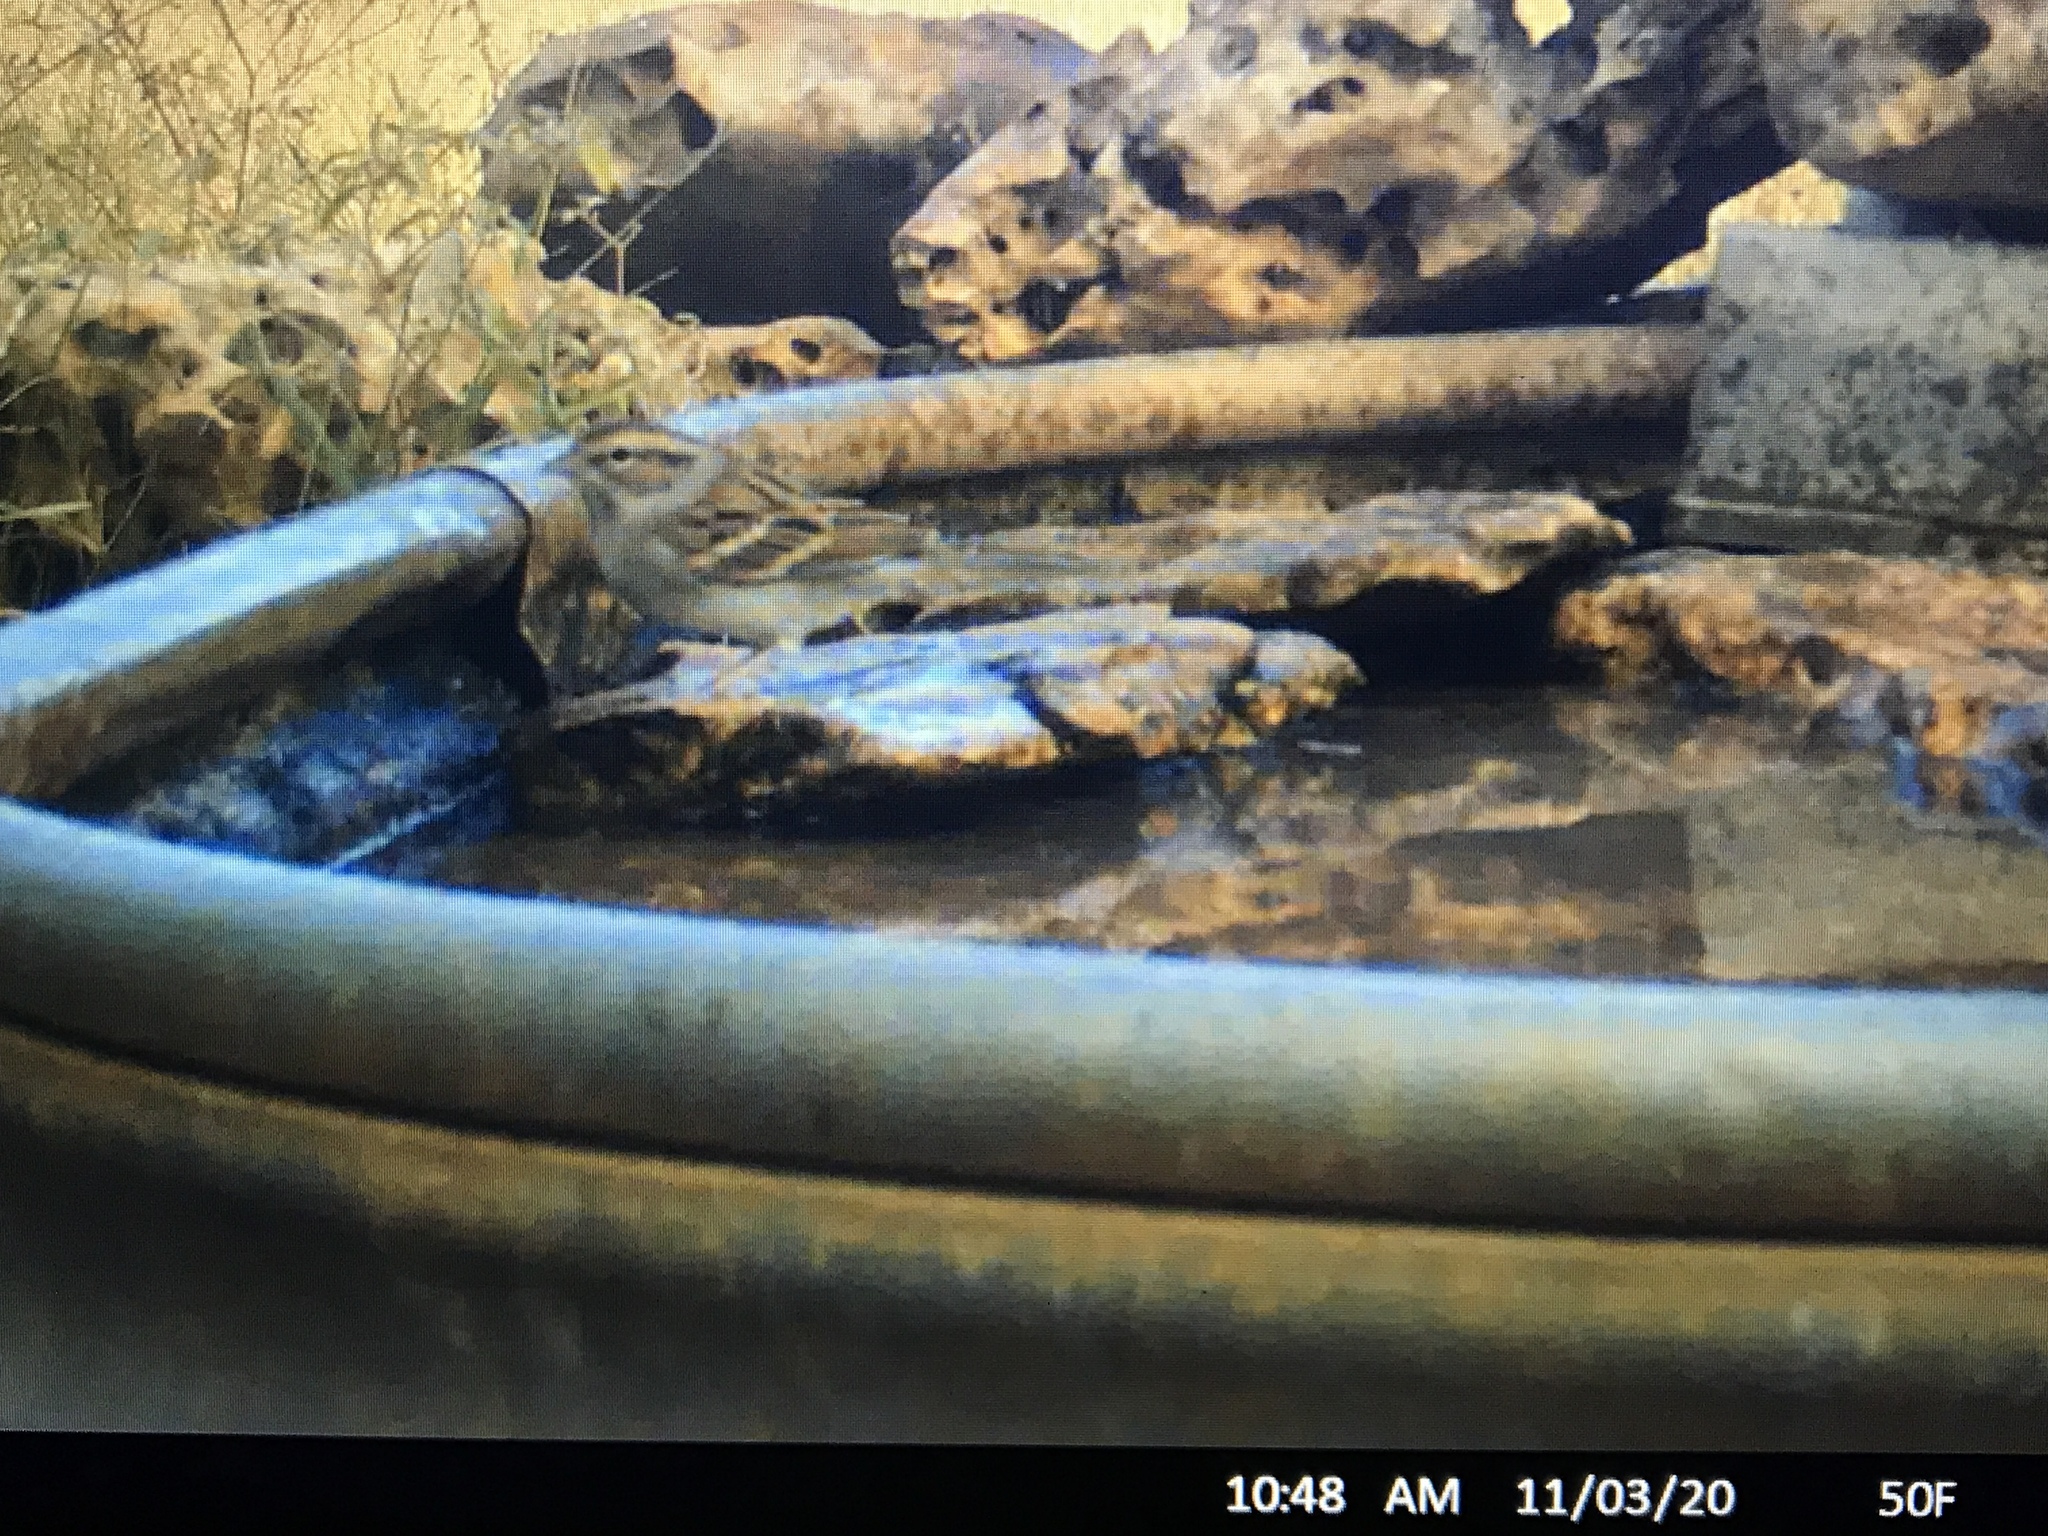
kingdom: Animalia
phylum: Chordata
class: Aves
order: Passeriformes
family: Passerellidae
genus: Spizella
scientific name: Spizella passerina
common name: Chipping sparrow
